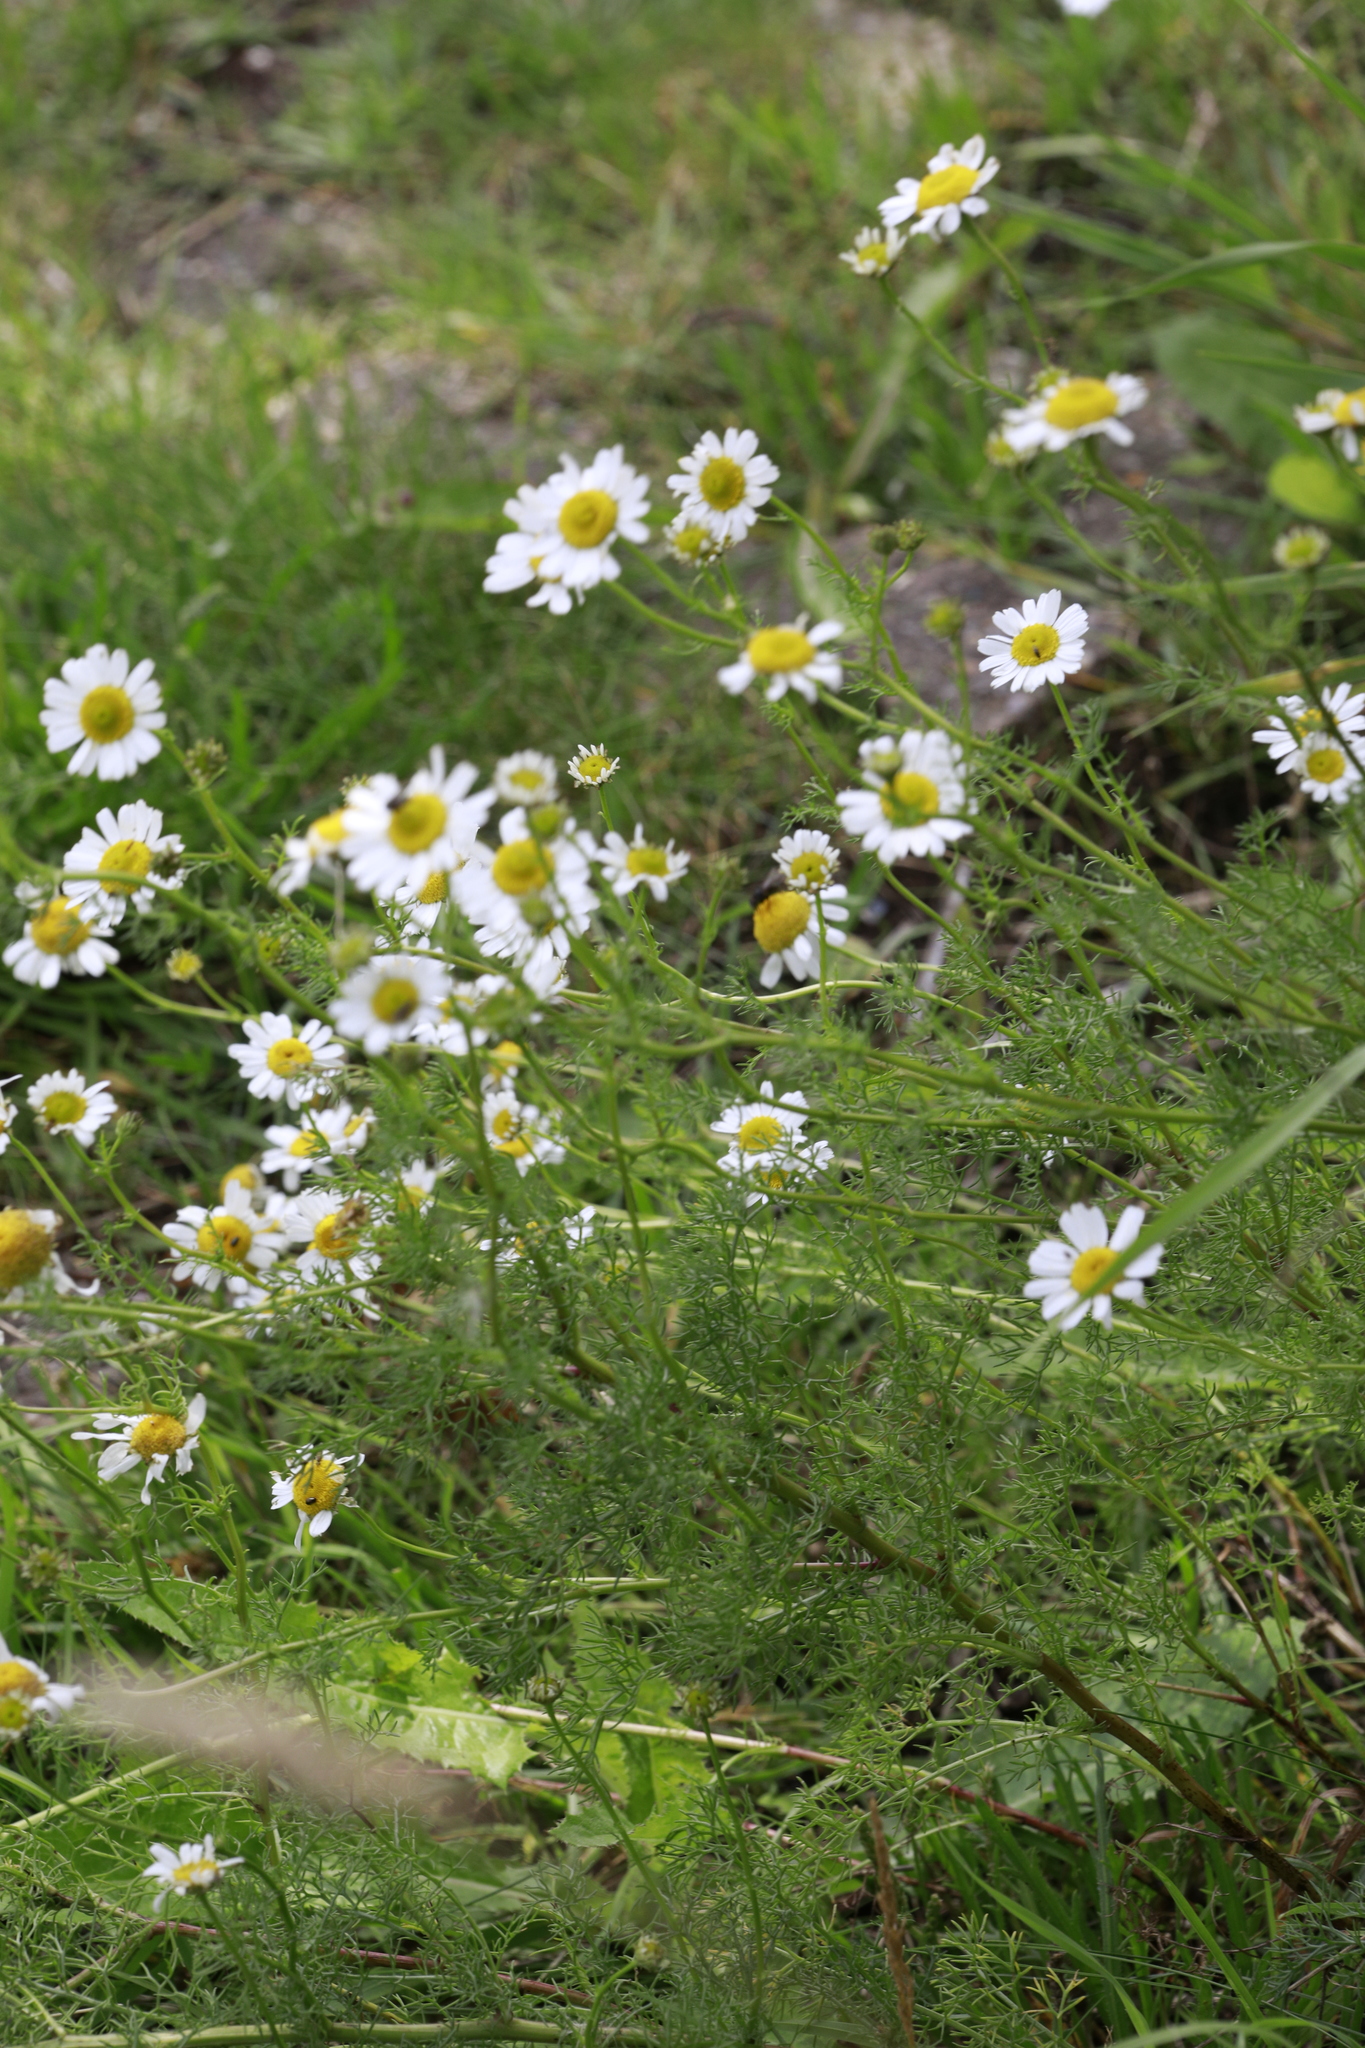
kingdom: Plantae
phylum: Tracheophyta
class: Magnoliopsida
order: Asterales
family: Asteraceae
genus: Matricaria
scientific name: Matricaria chamomilla
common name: Scented mayweed
